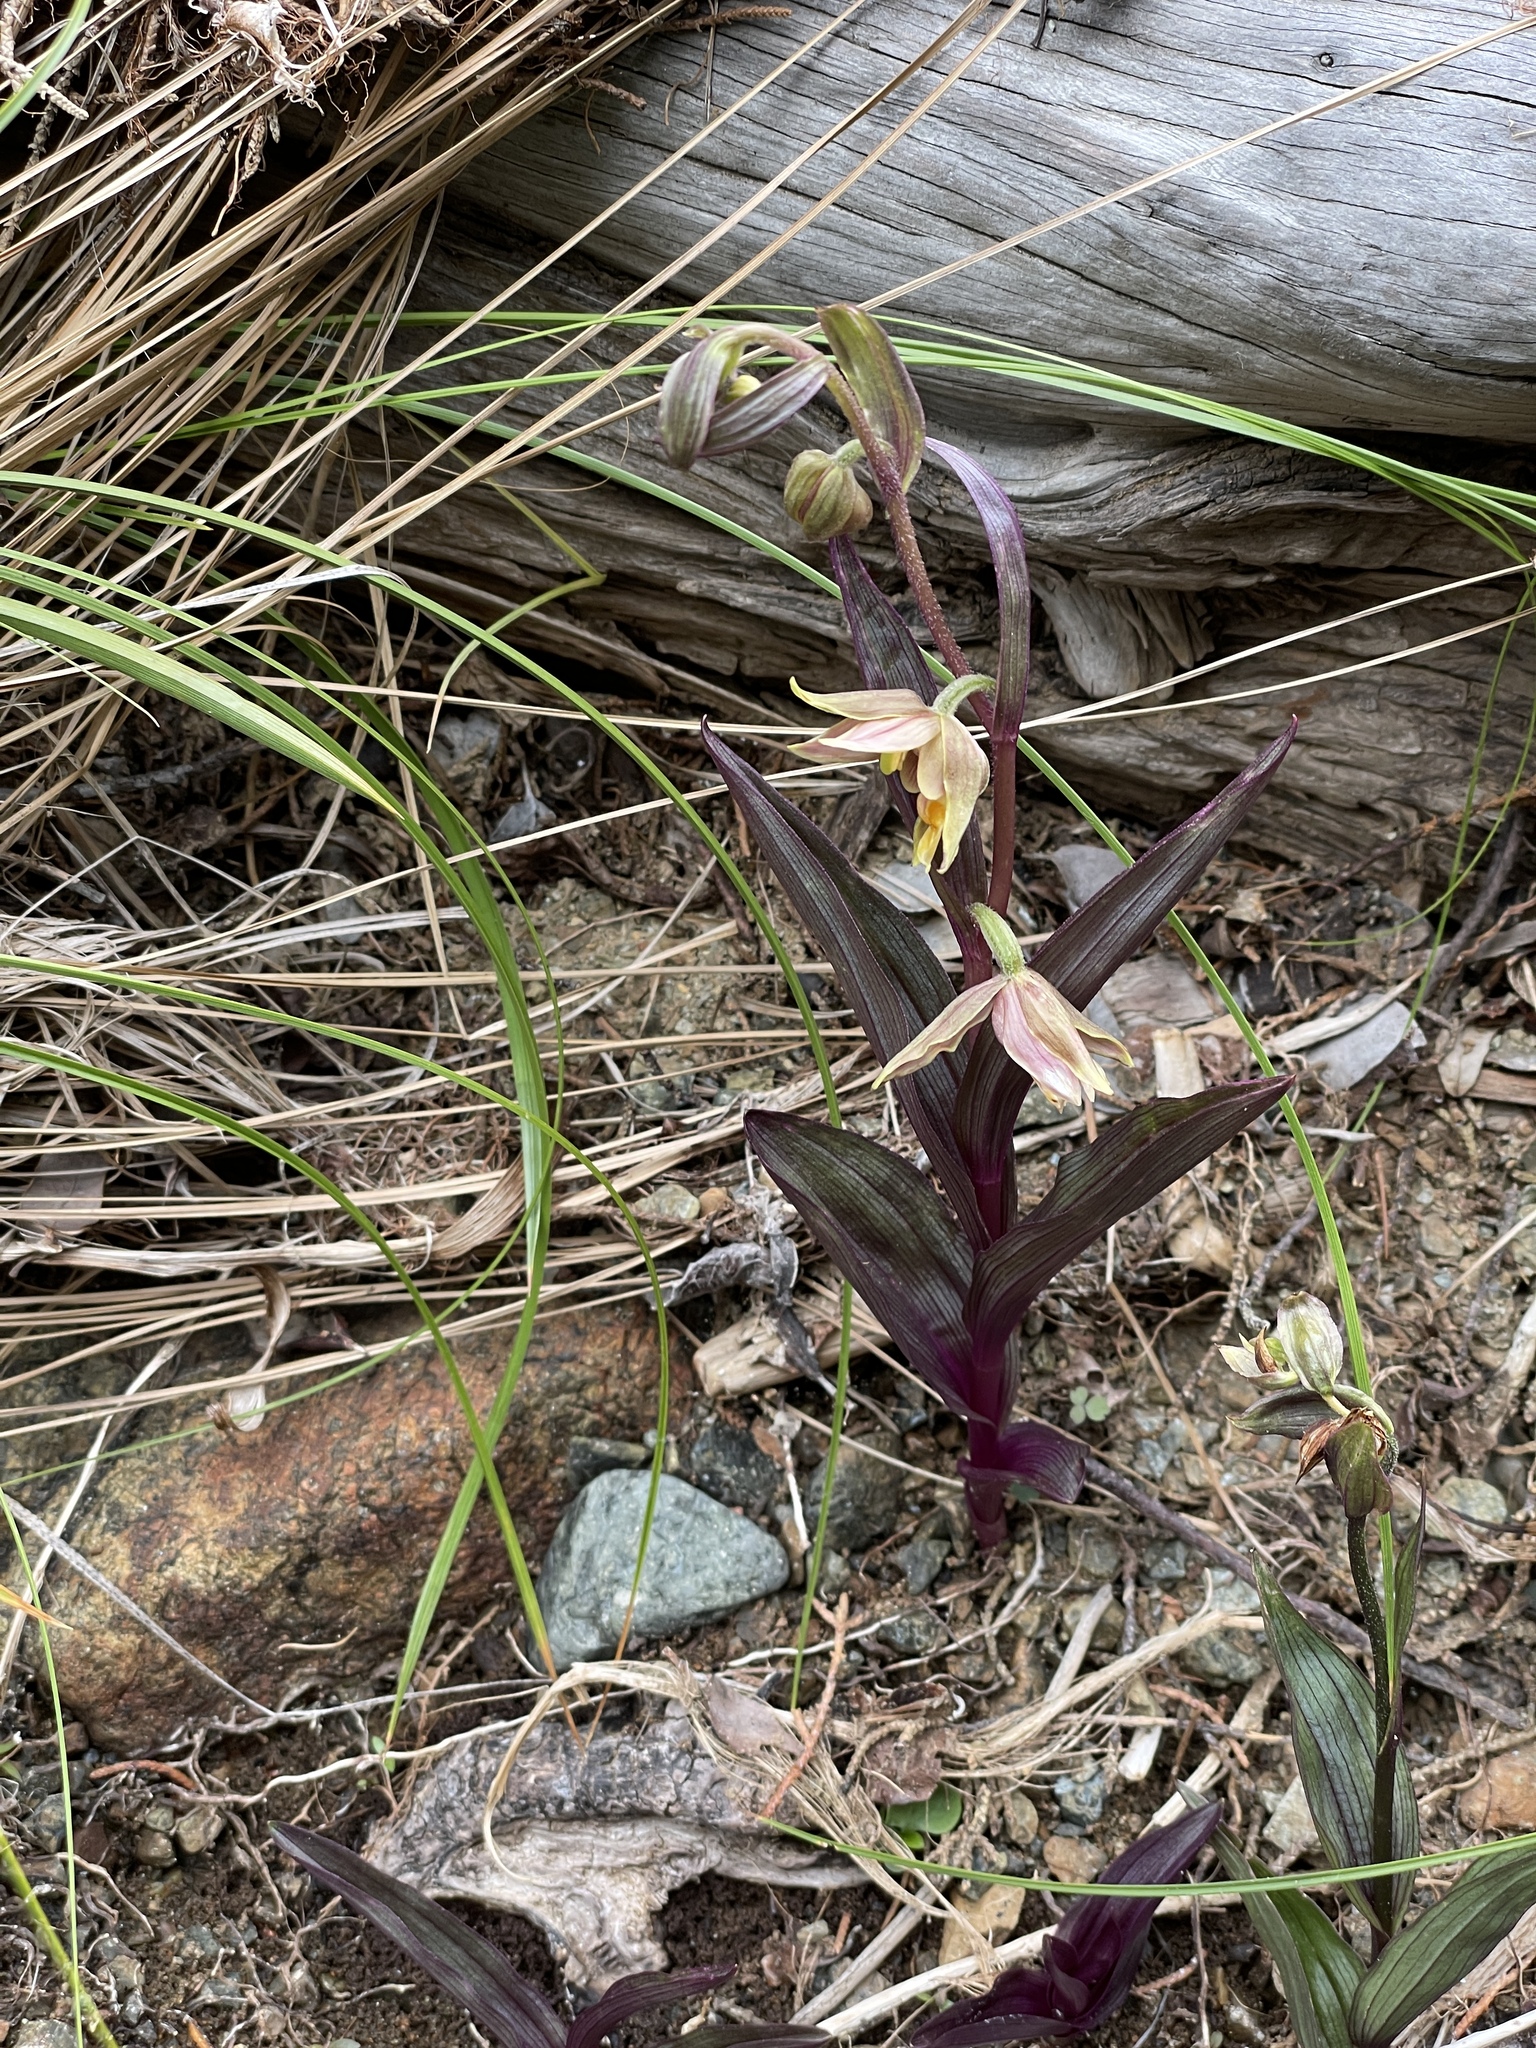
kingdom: Plantae
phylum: Tracheophyta
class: Liliopsida
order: Asparagales
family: Orchidaceae
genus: Epipactis
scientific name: Epipactis gigantea
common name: Chatterbox
